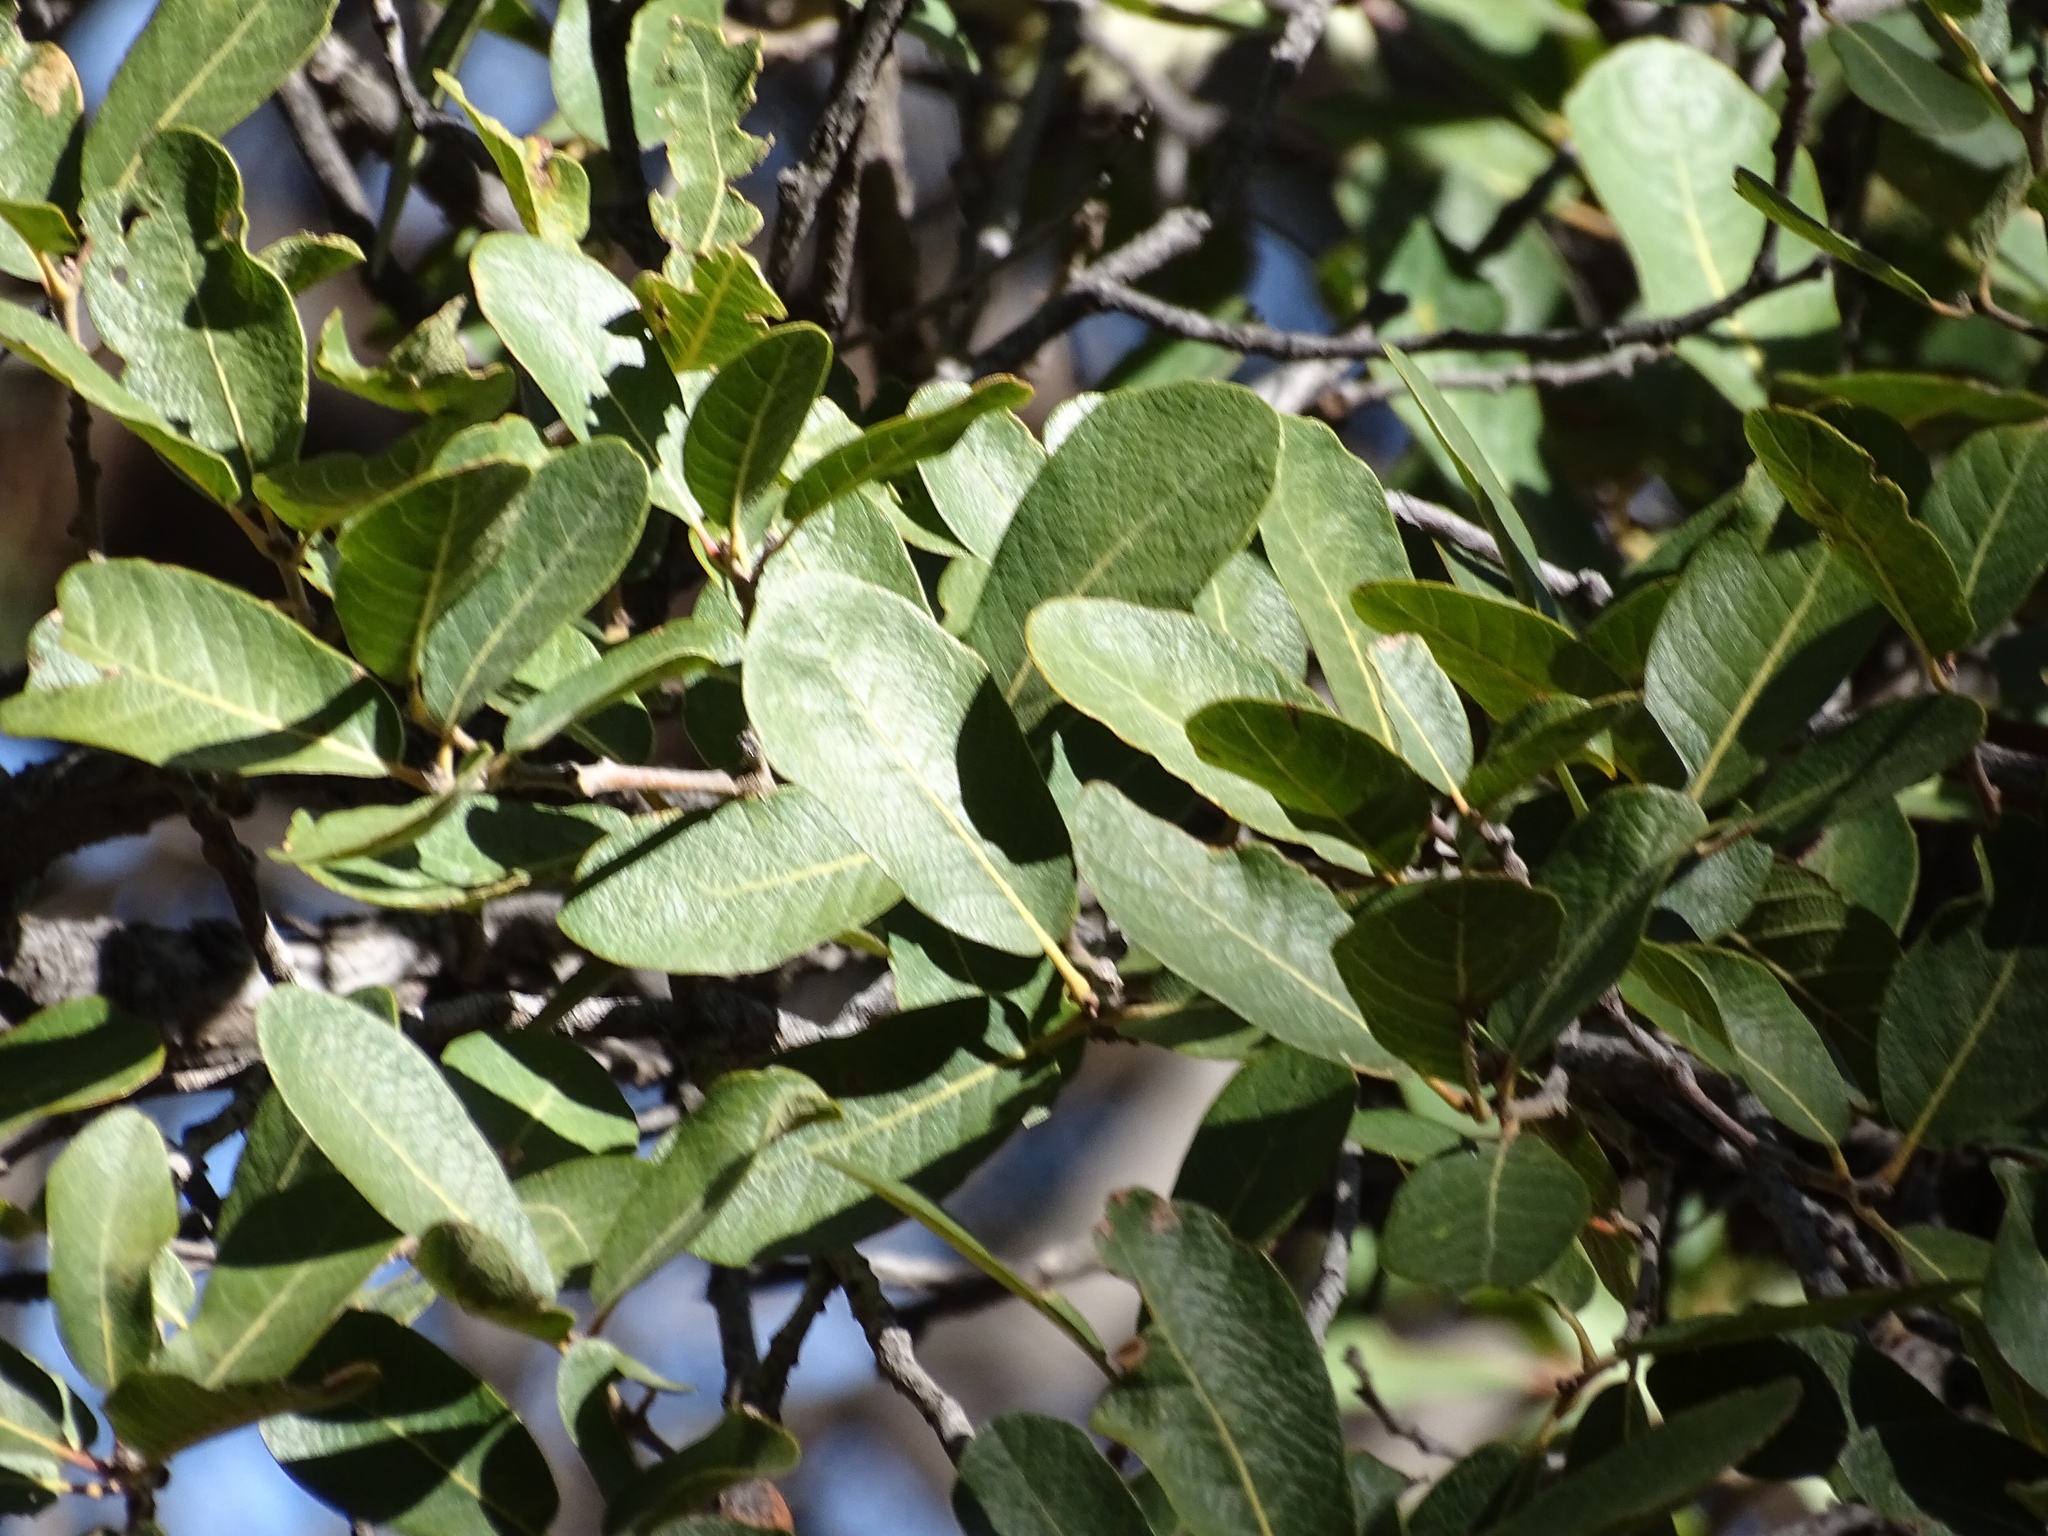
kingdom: Plantae
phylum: Tracheophyta
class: Magnoliopsida
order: Fagales
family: Fagaceae
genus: Quercus
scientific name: Quercus arizonica
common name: Arizona white oak
